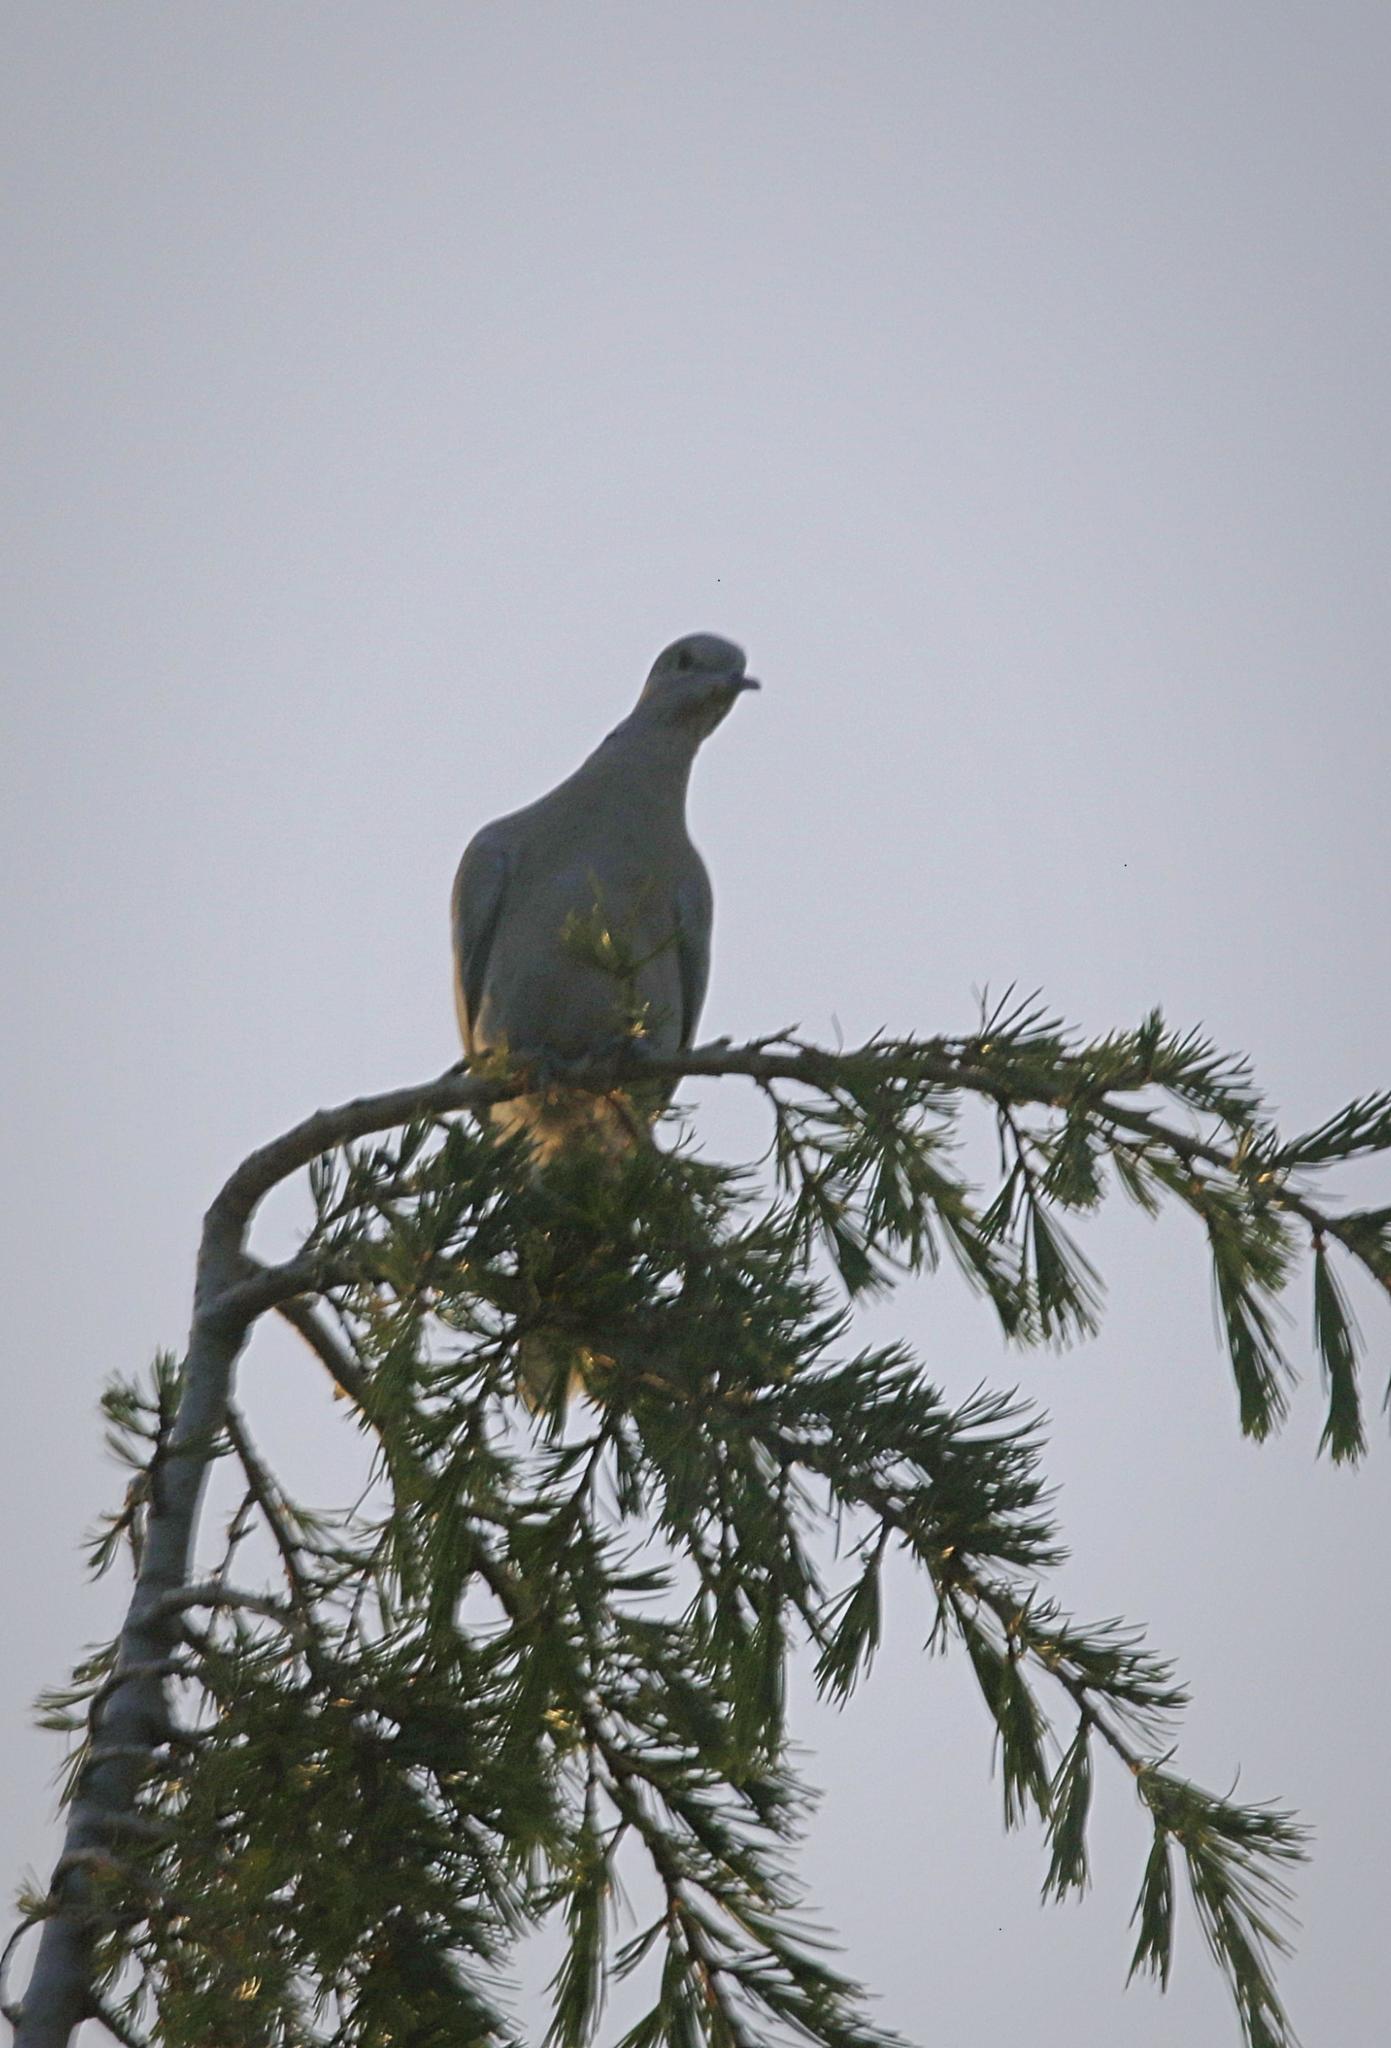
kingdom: Animalia
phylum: Chordata
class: Aves
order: Columbiformes
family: Columbidae
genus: Streptopelia
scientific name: Streptopelia decaocto
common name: Eurasian collared dove
